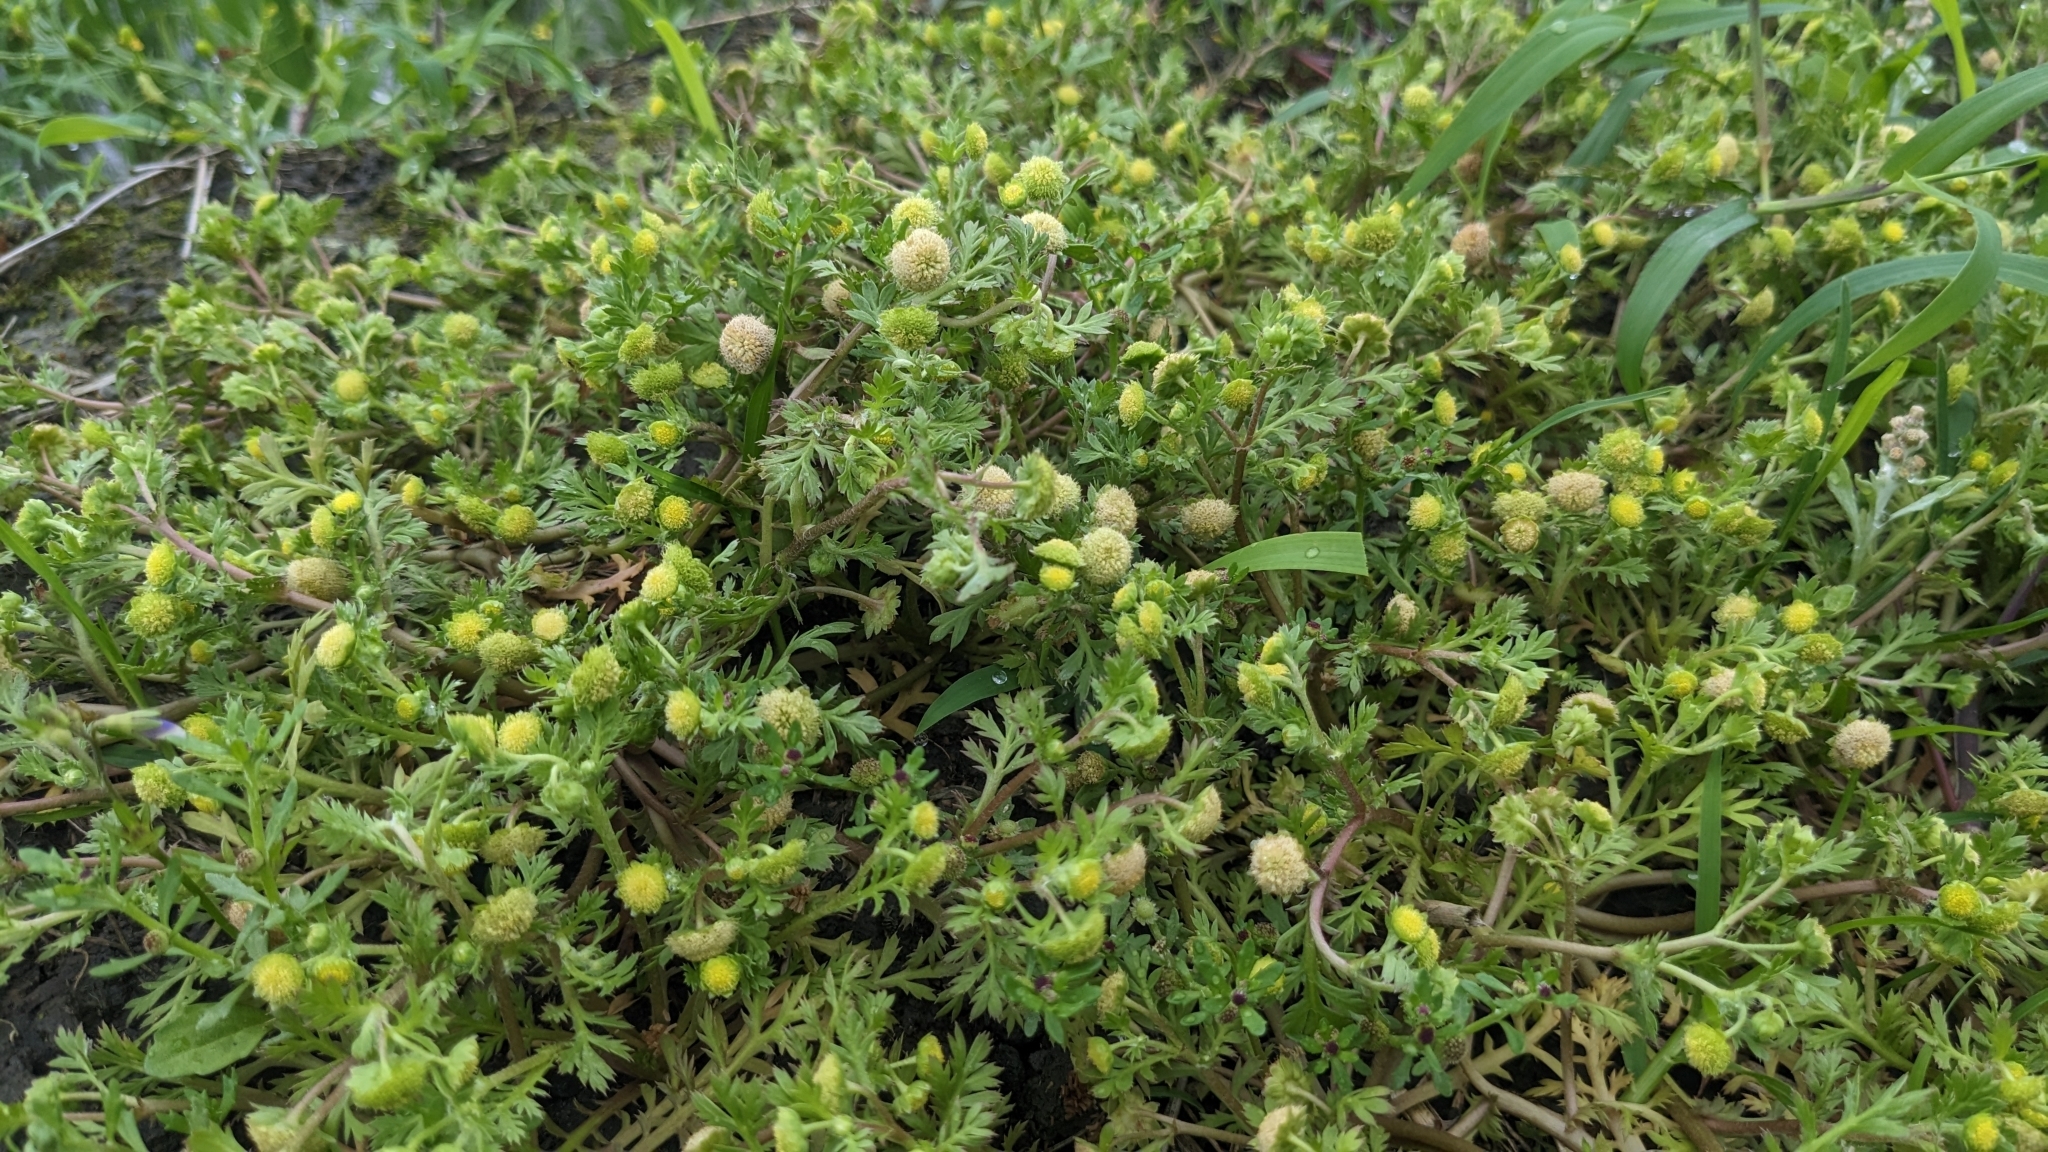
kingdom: Plantae
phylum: Tracheophyta
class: Magnoliopsida
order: Asterales
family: Asteraceae
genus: Cotula
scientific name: Cotula hemisphaerica
